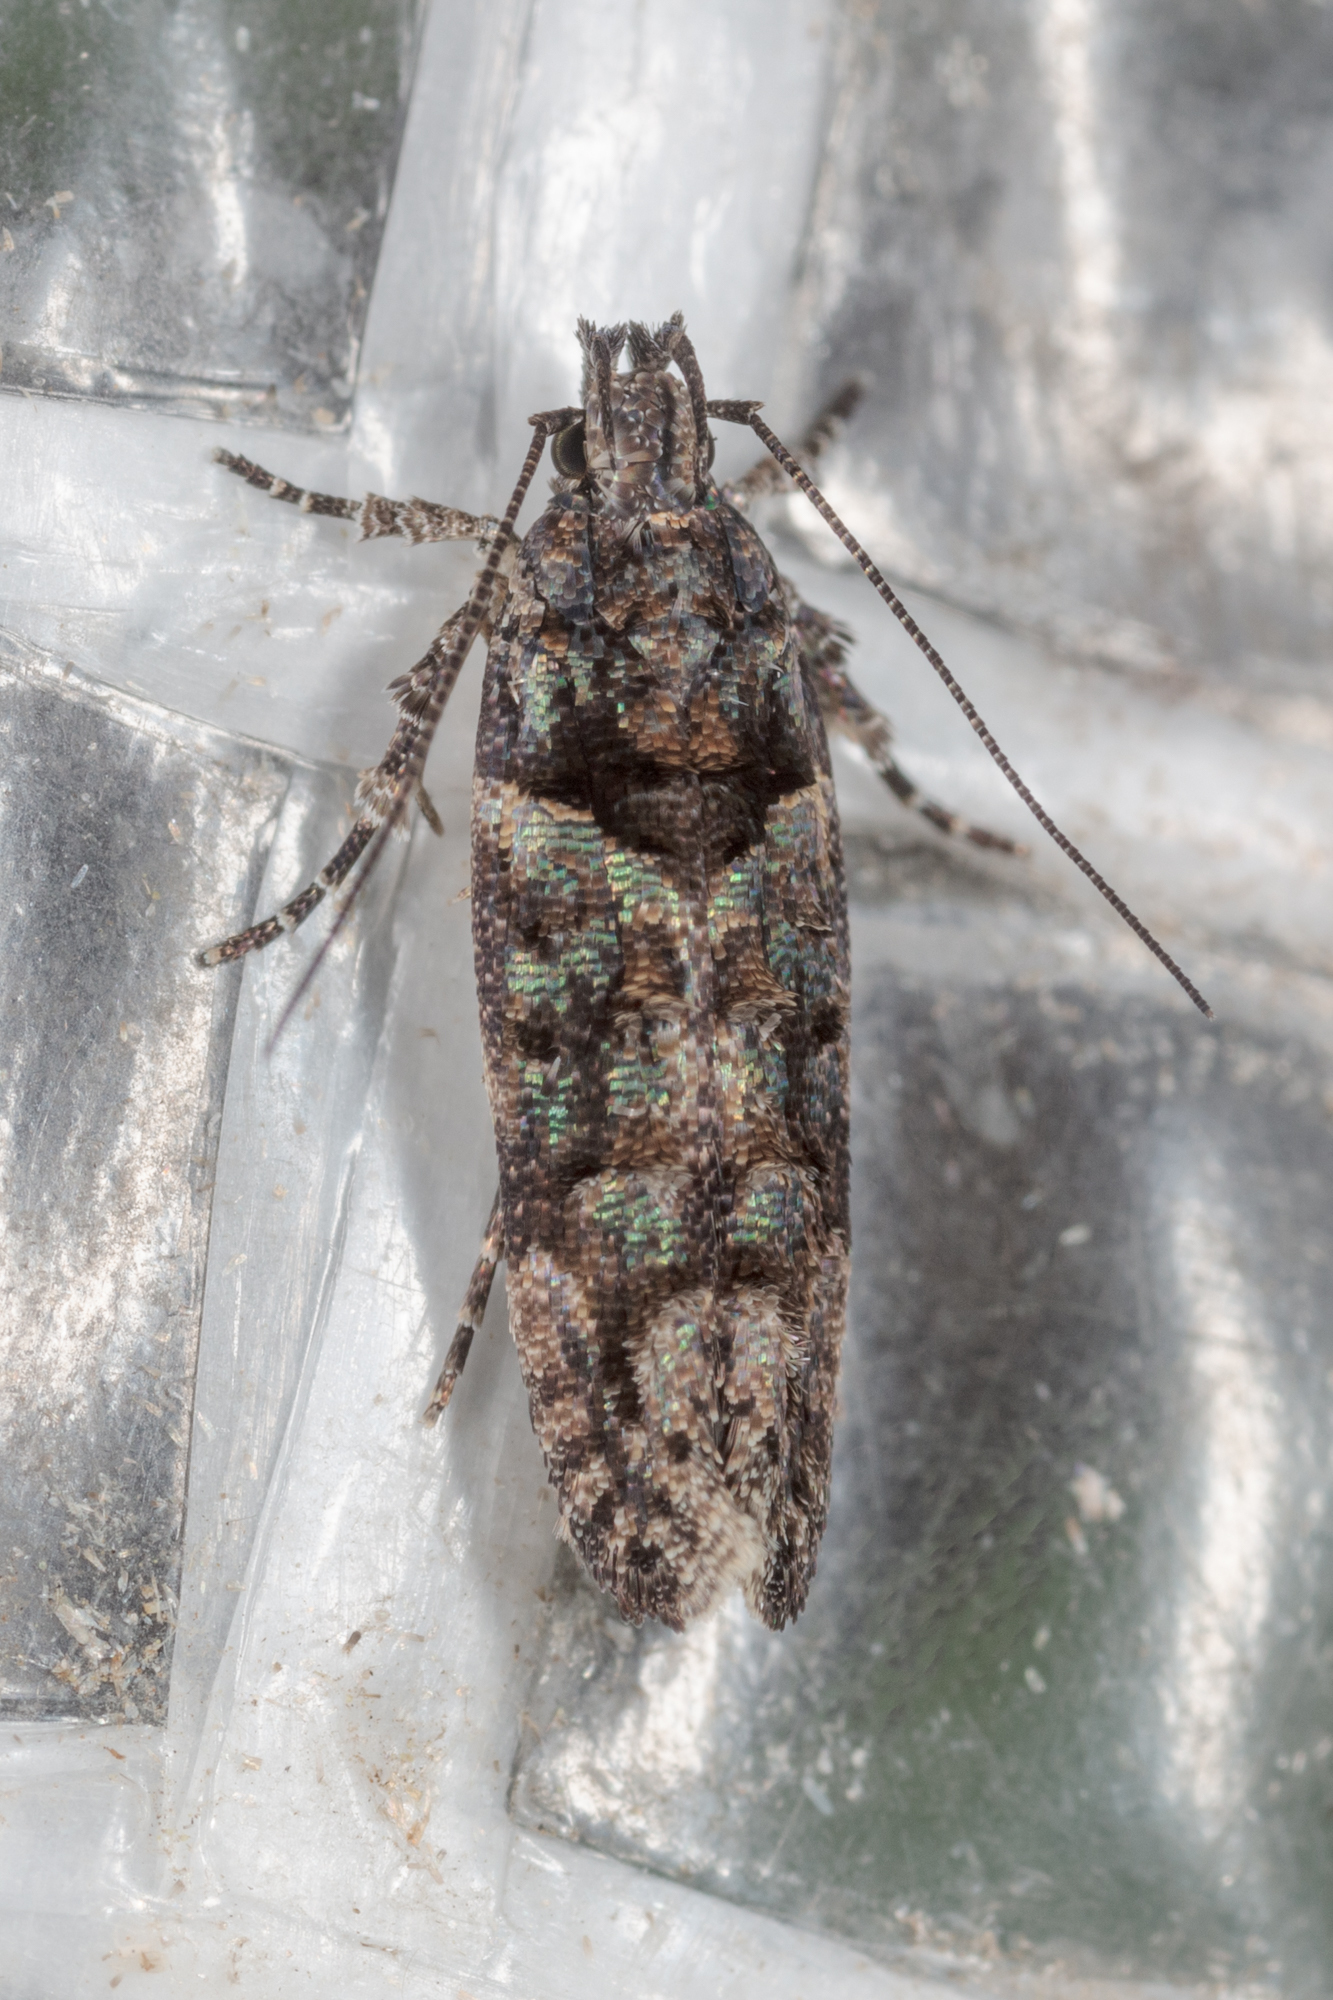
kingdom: Animalia
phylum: Arthropoda
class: Insecta
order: Lepidoptera
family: Gelechiidae
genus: Telphusa
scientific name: Telphusa perspicua
